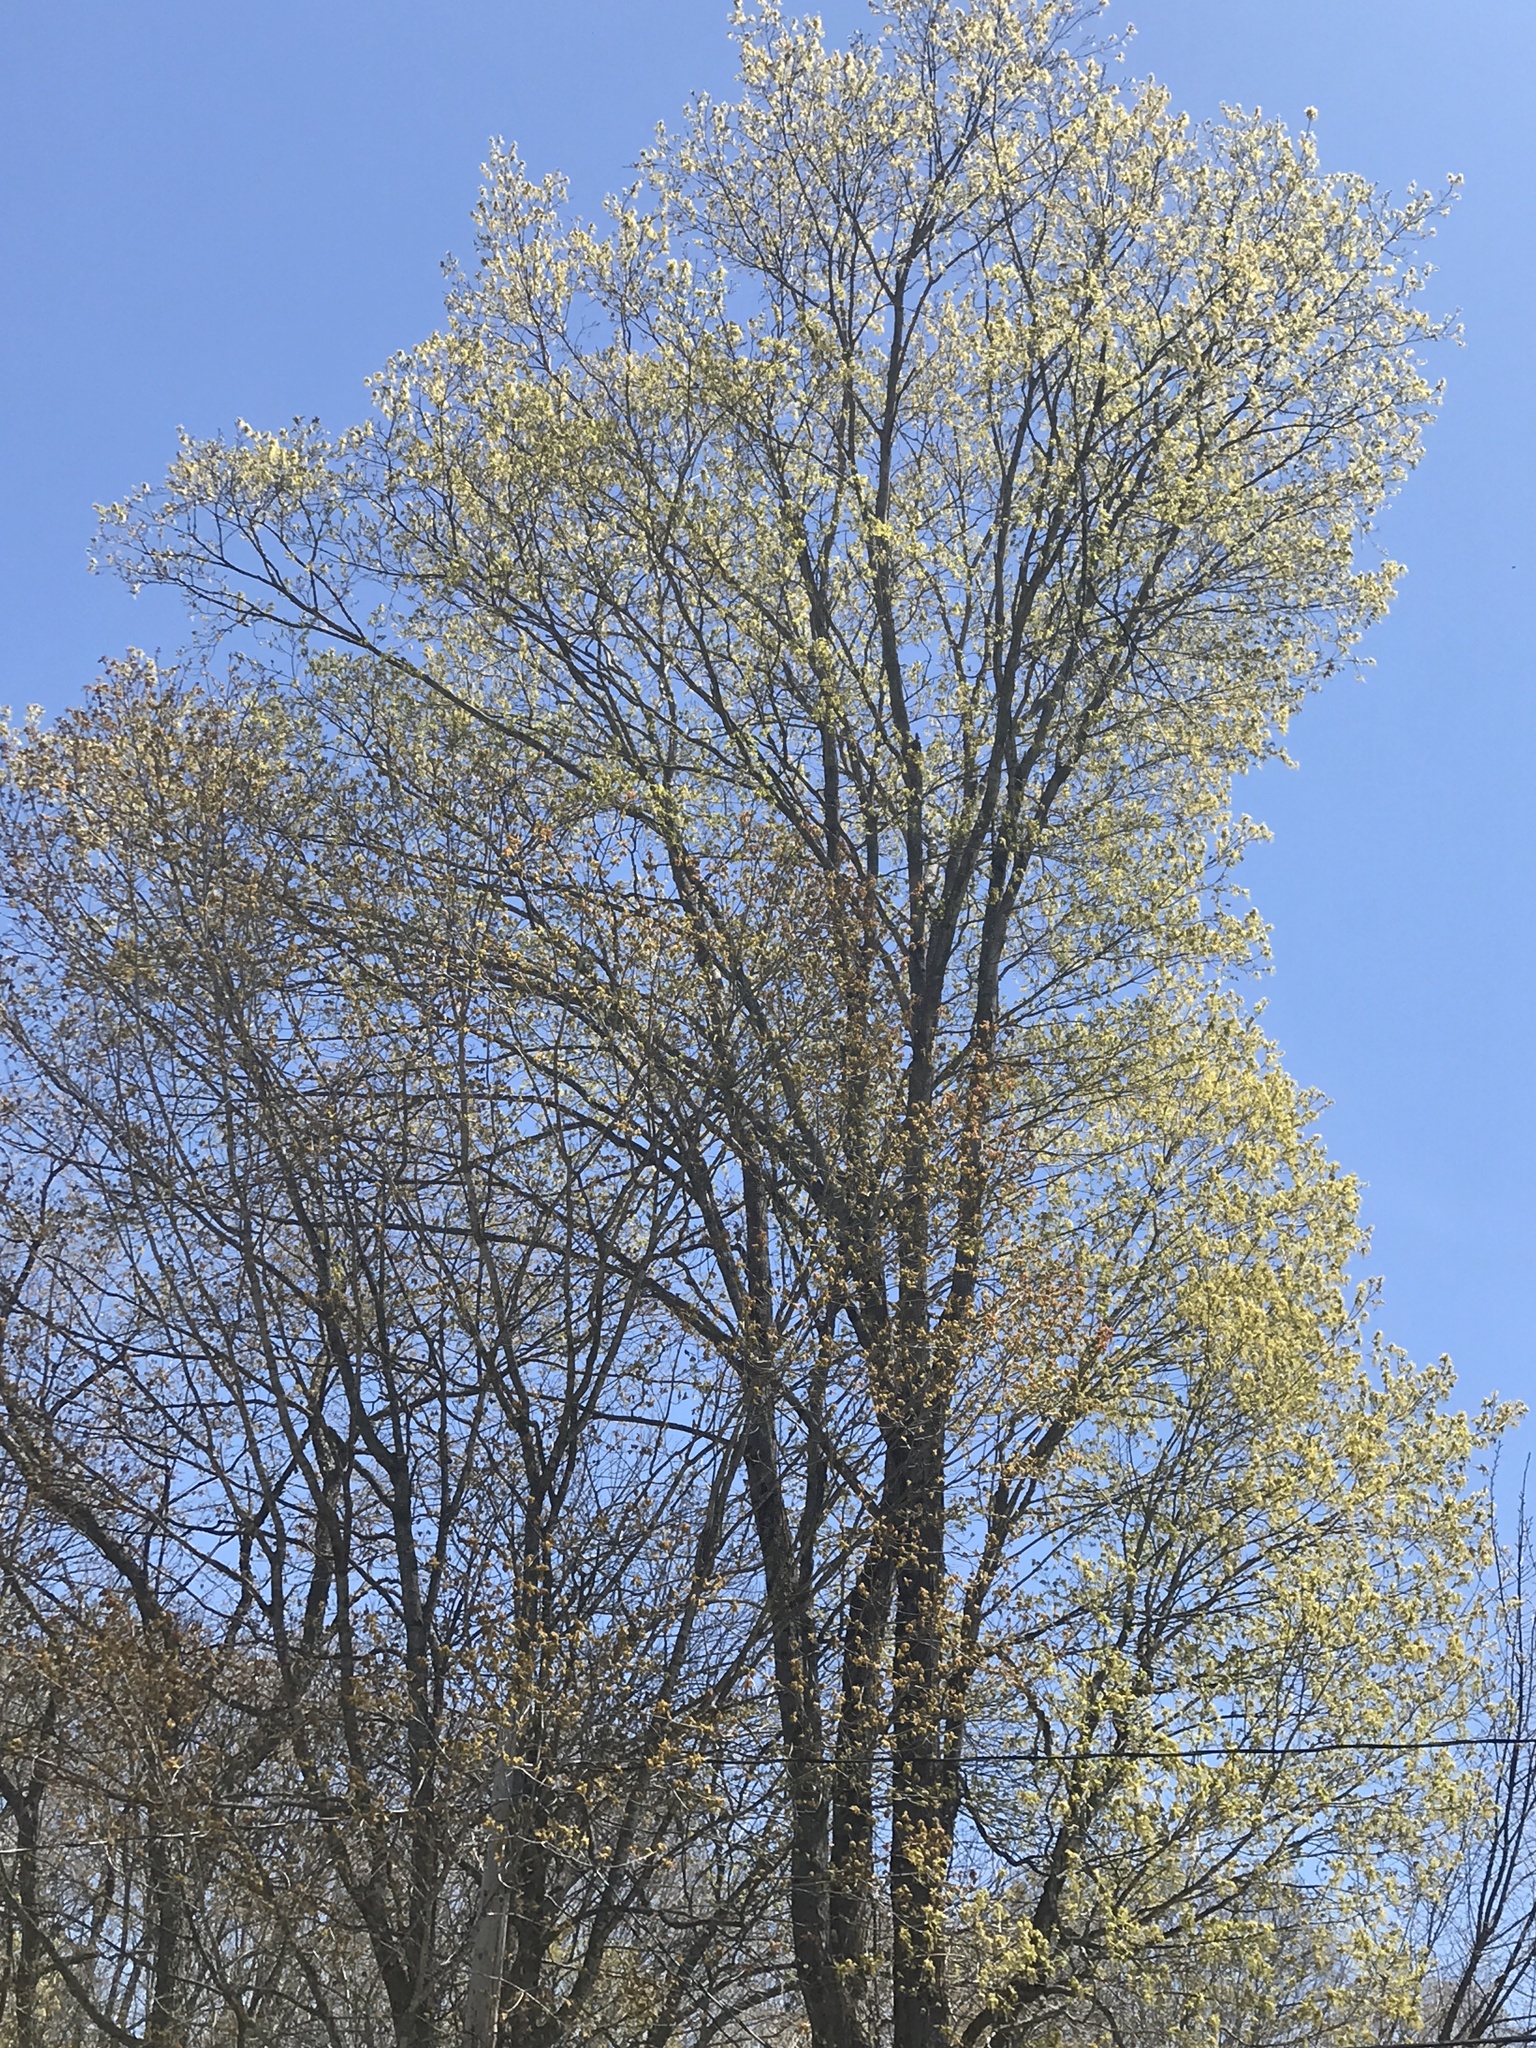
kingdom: Plantae
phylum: Tracheophyta
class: Magnoliopsida
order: Sapindales
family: Sapindaceae
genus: Acer
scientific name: Acer saccharum
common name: Sugar maple
